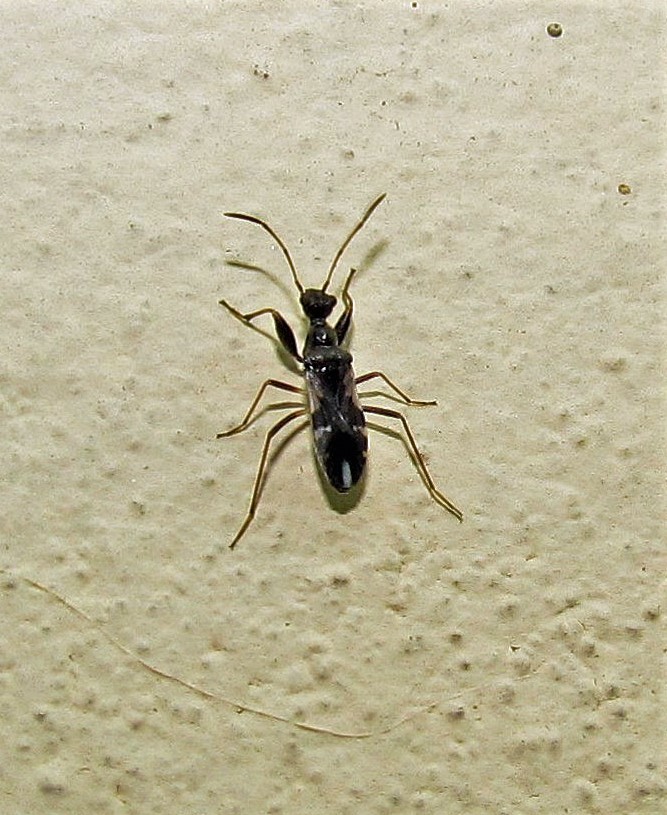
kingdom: Animalia
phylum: Arthropoda
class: Insecta
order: Hemiptera
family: Rhyparochromidae
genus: Erlacda
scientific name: Erlacda argentinensis
